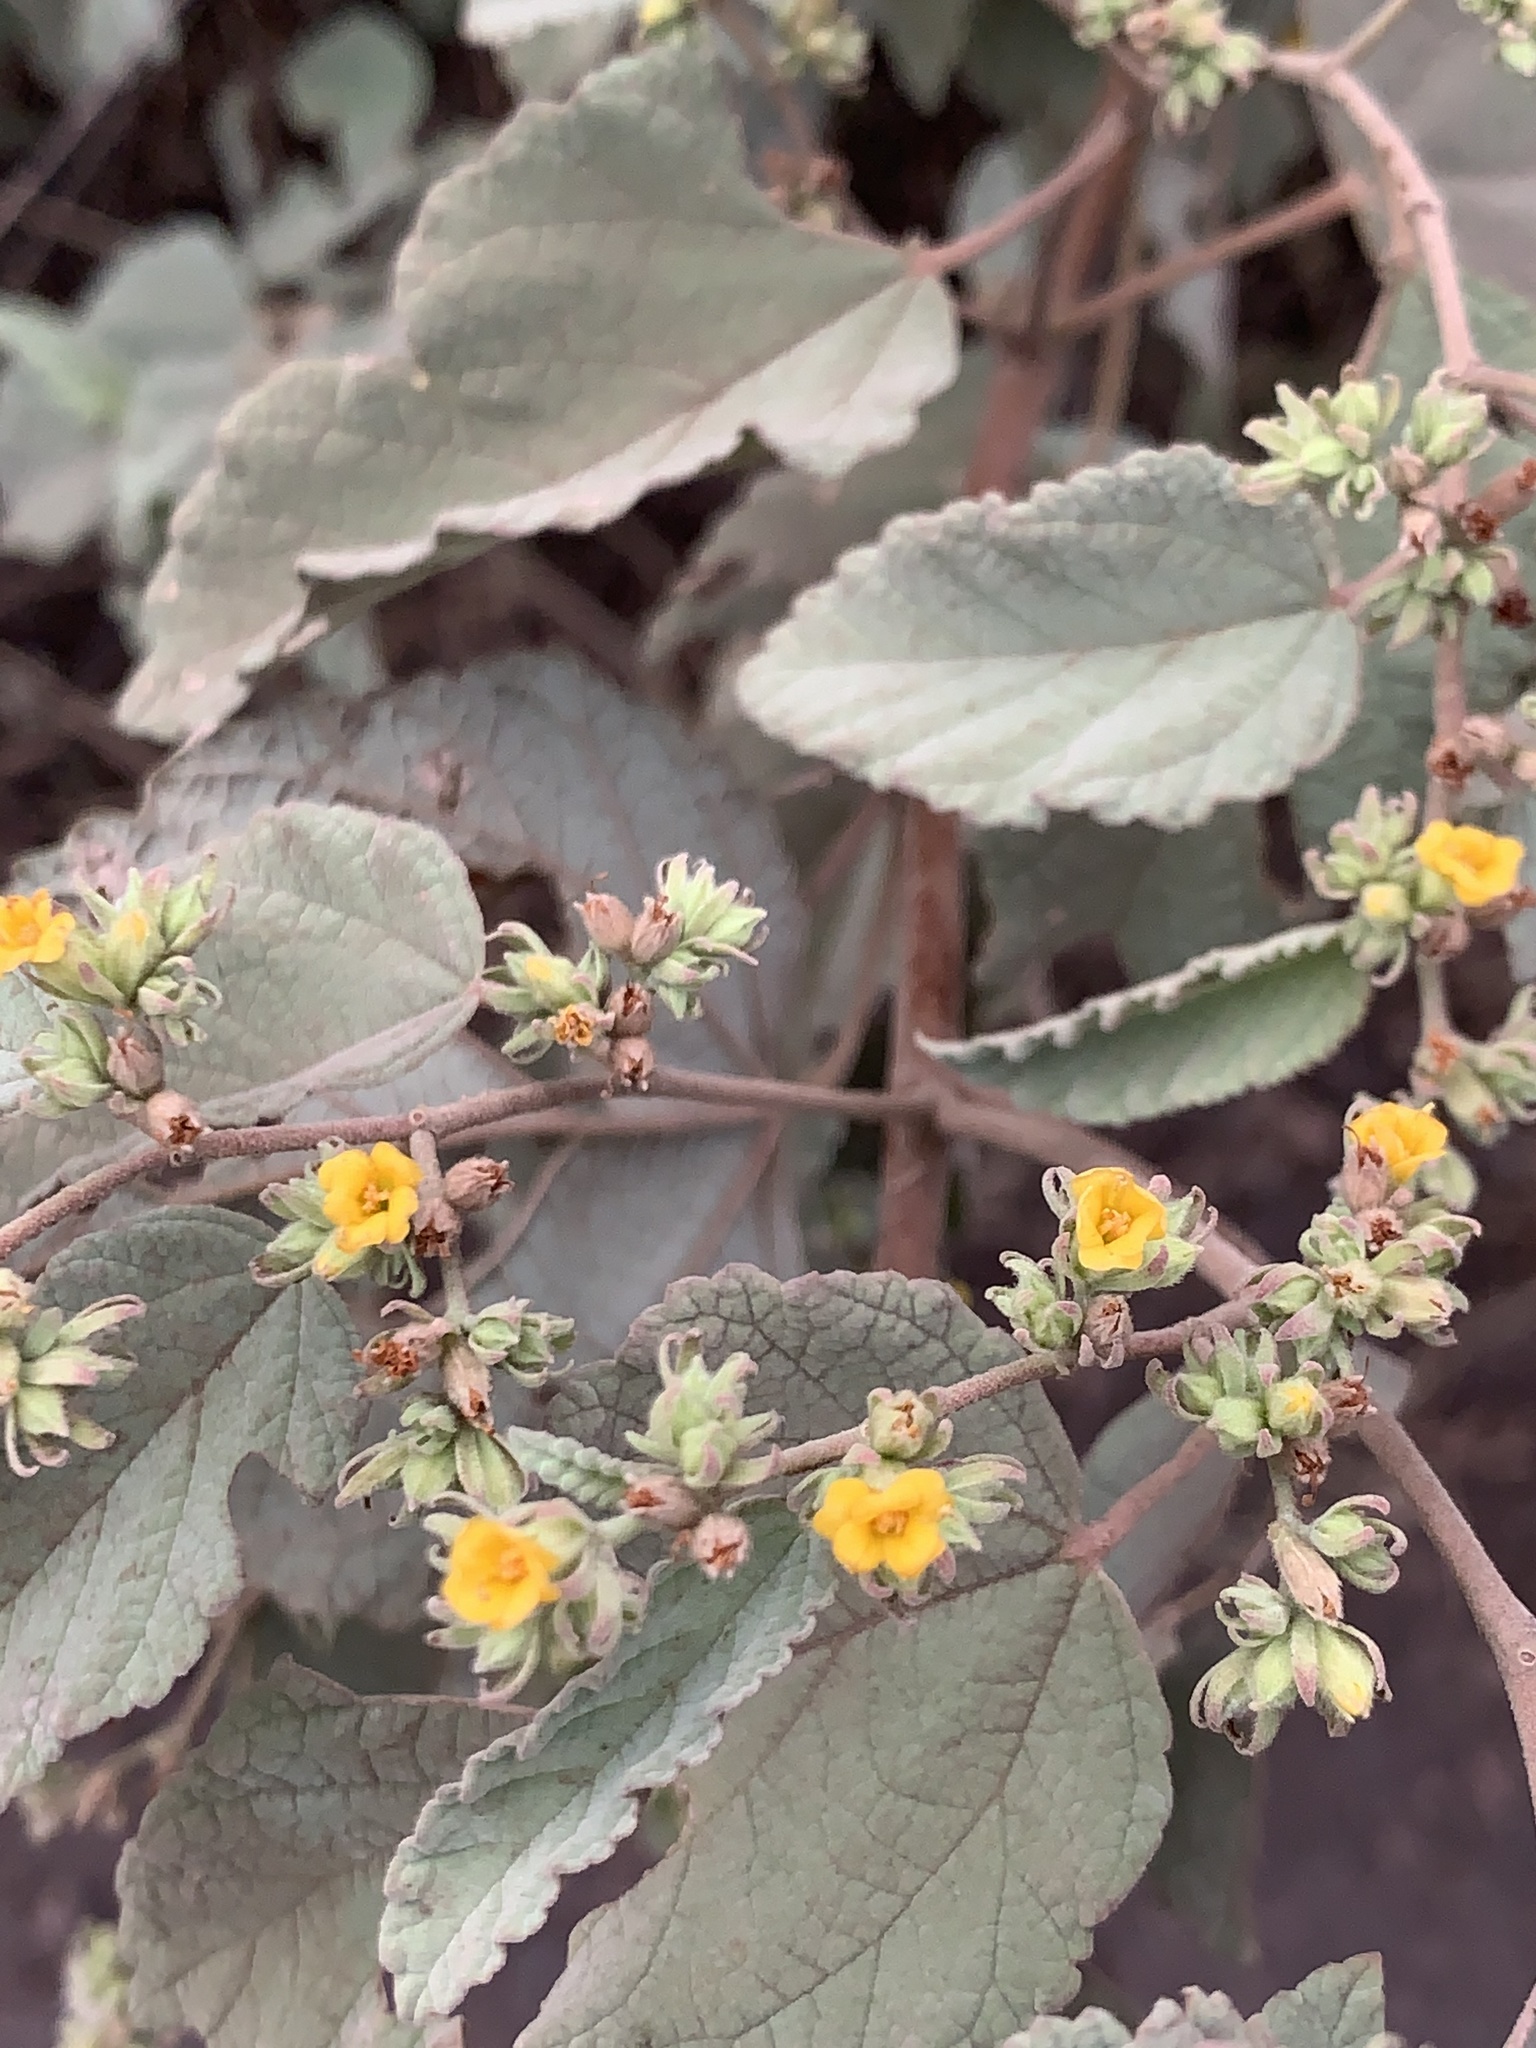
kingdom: Plantae
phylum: Tracheophyta
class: Magnoliopsida
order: Malvales
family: Malvaceae
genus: Waltheria
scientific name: Waltheria ovata
